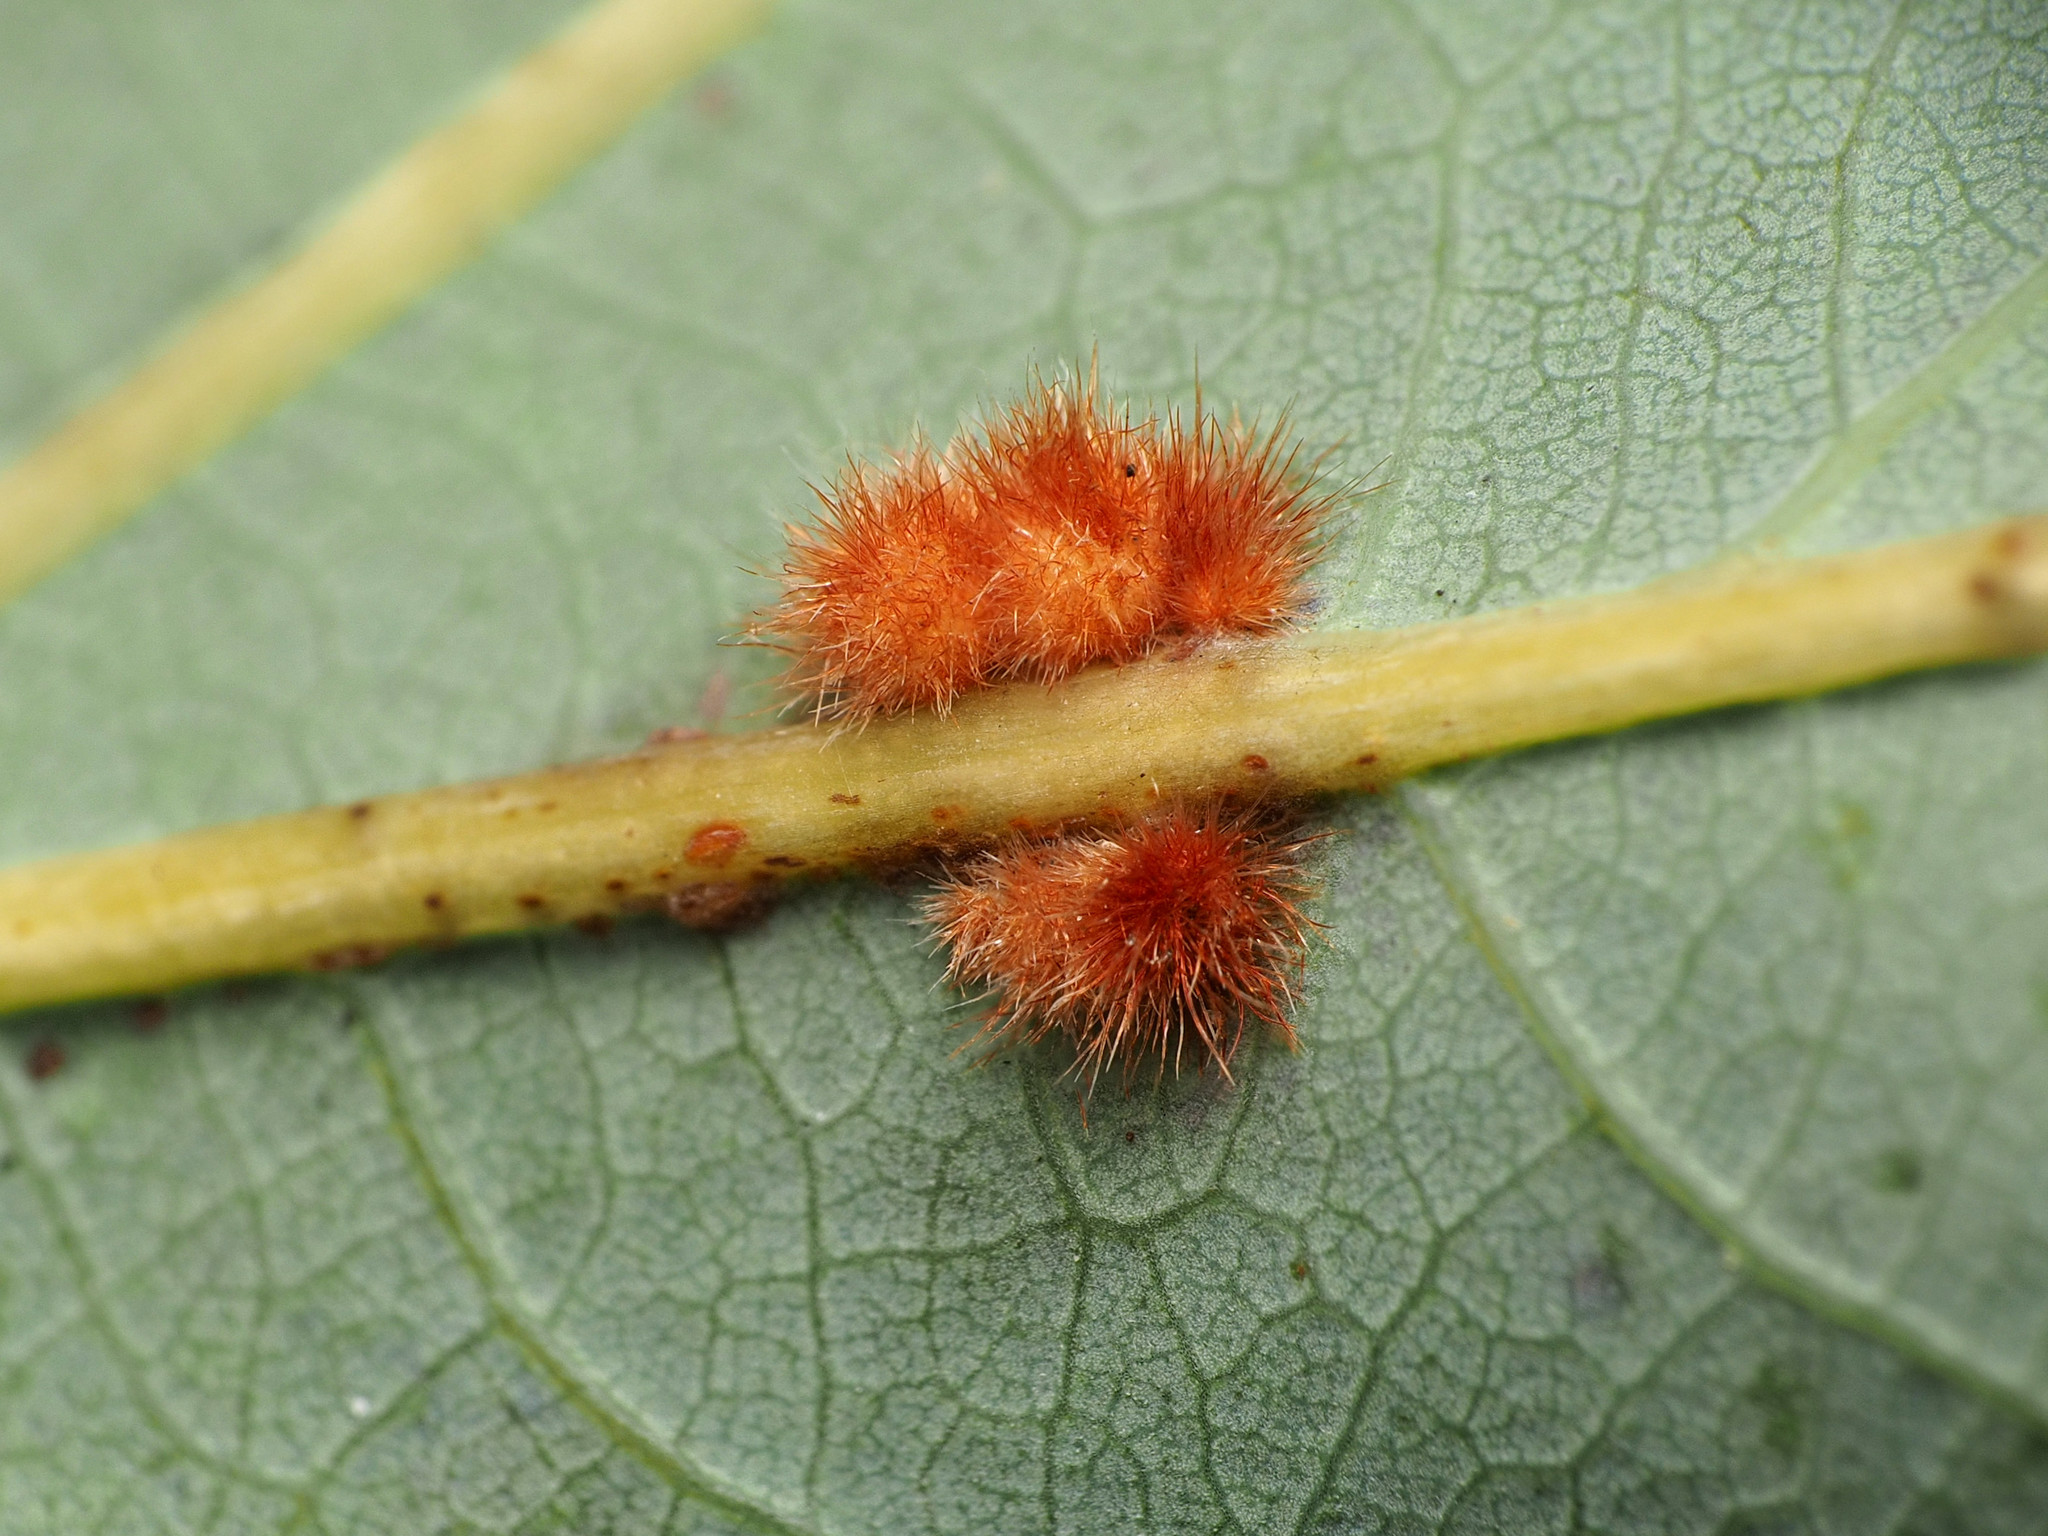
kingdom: Animalia
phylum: Arthropoda
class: Insecta
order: Hymenoptera
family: Cynipidae
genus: Andricus
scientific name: Andricus
